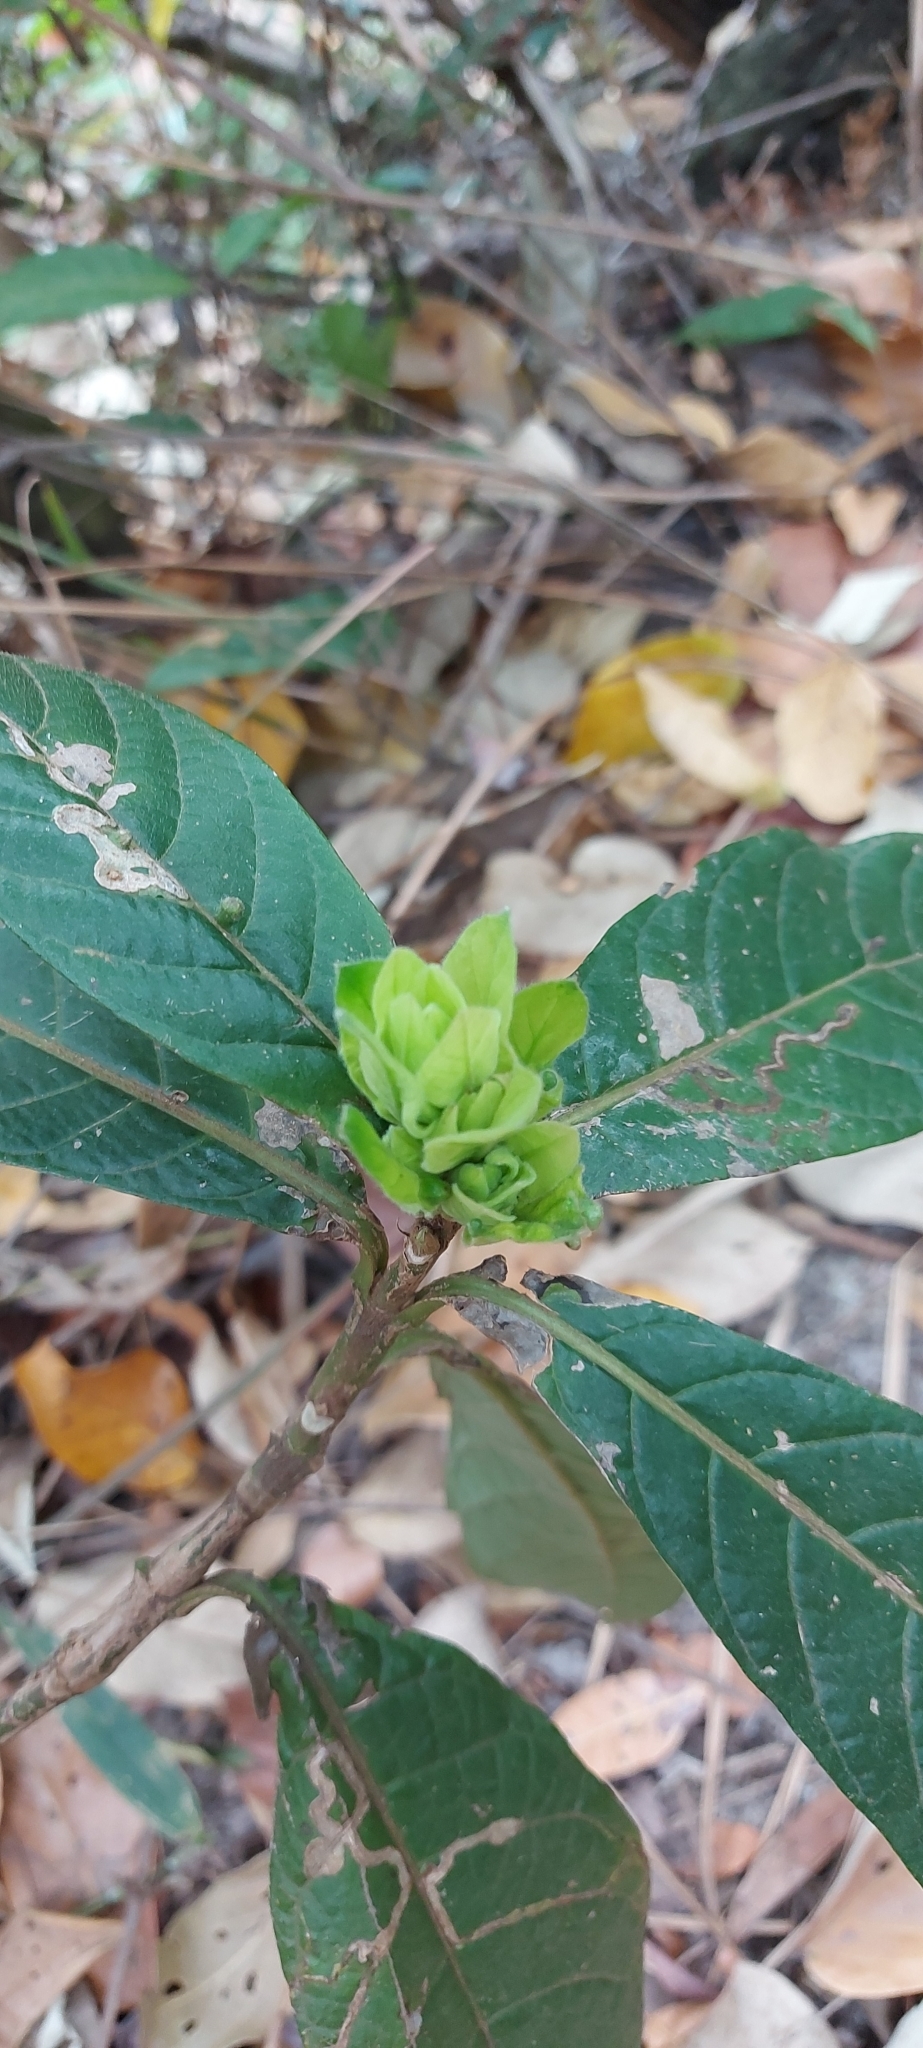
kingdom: Plantae
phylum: Tracheophyta
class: Magnoliopsida
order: Lamiales
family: Acanthaceae
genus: Justicia
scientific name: Justicia riparia
